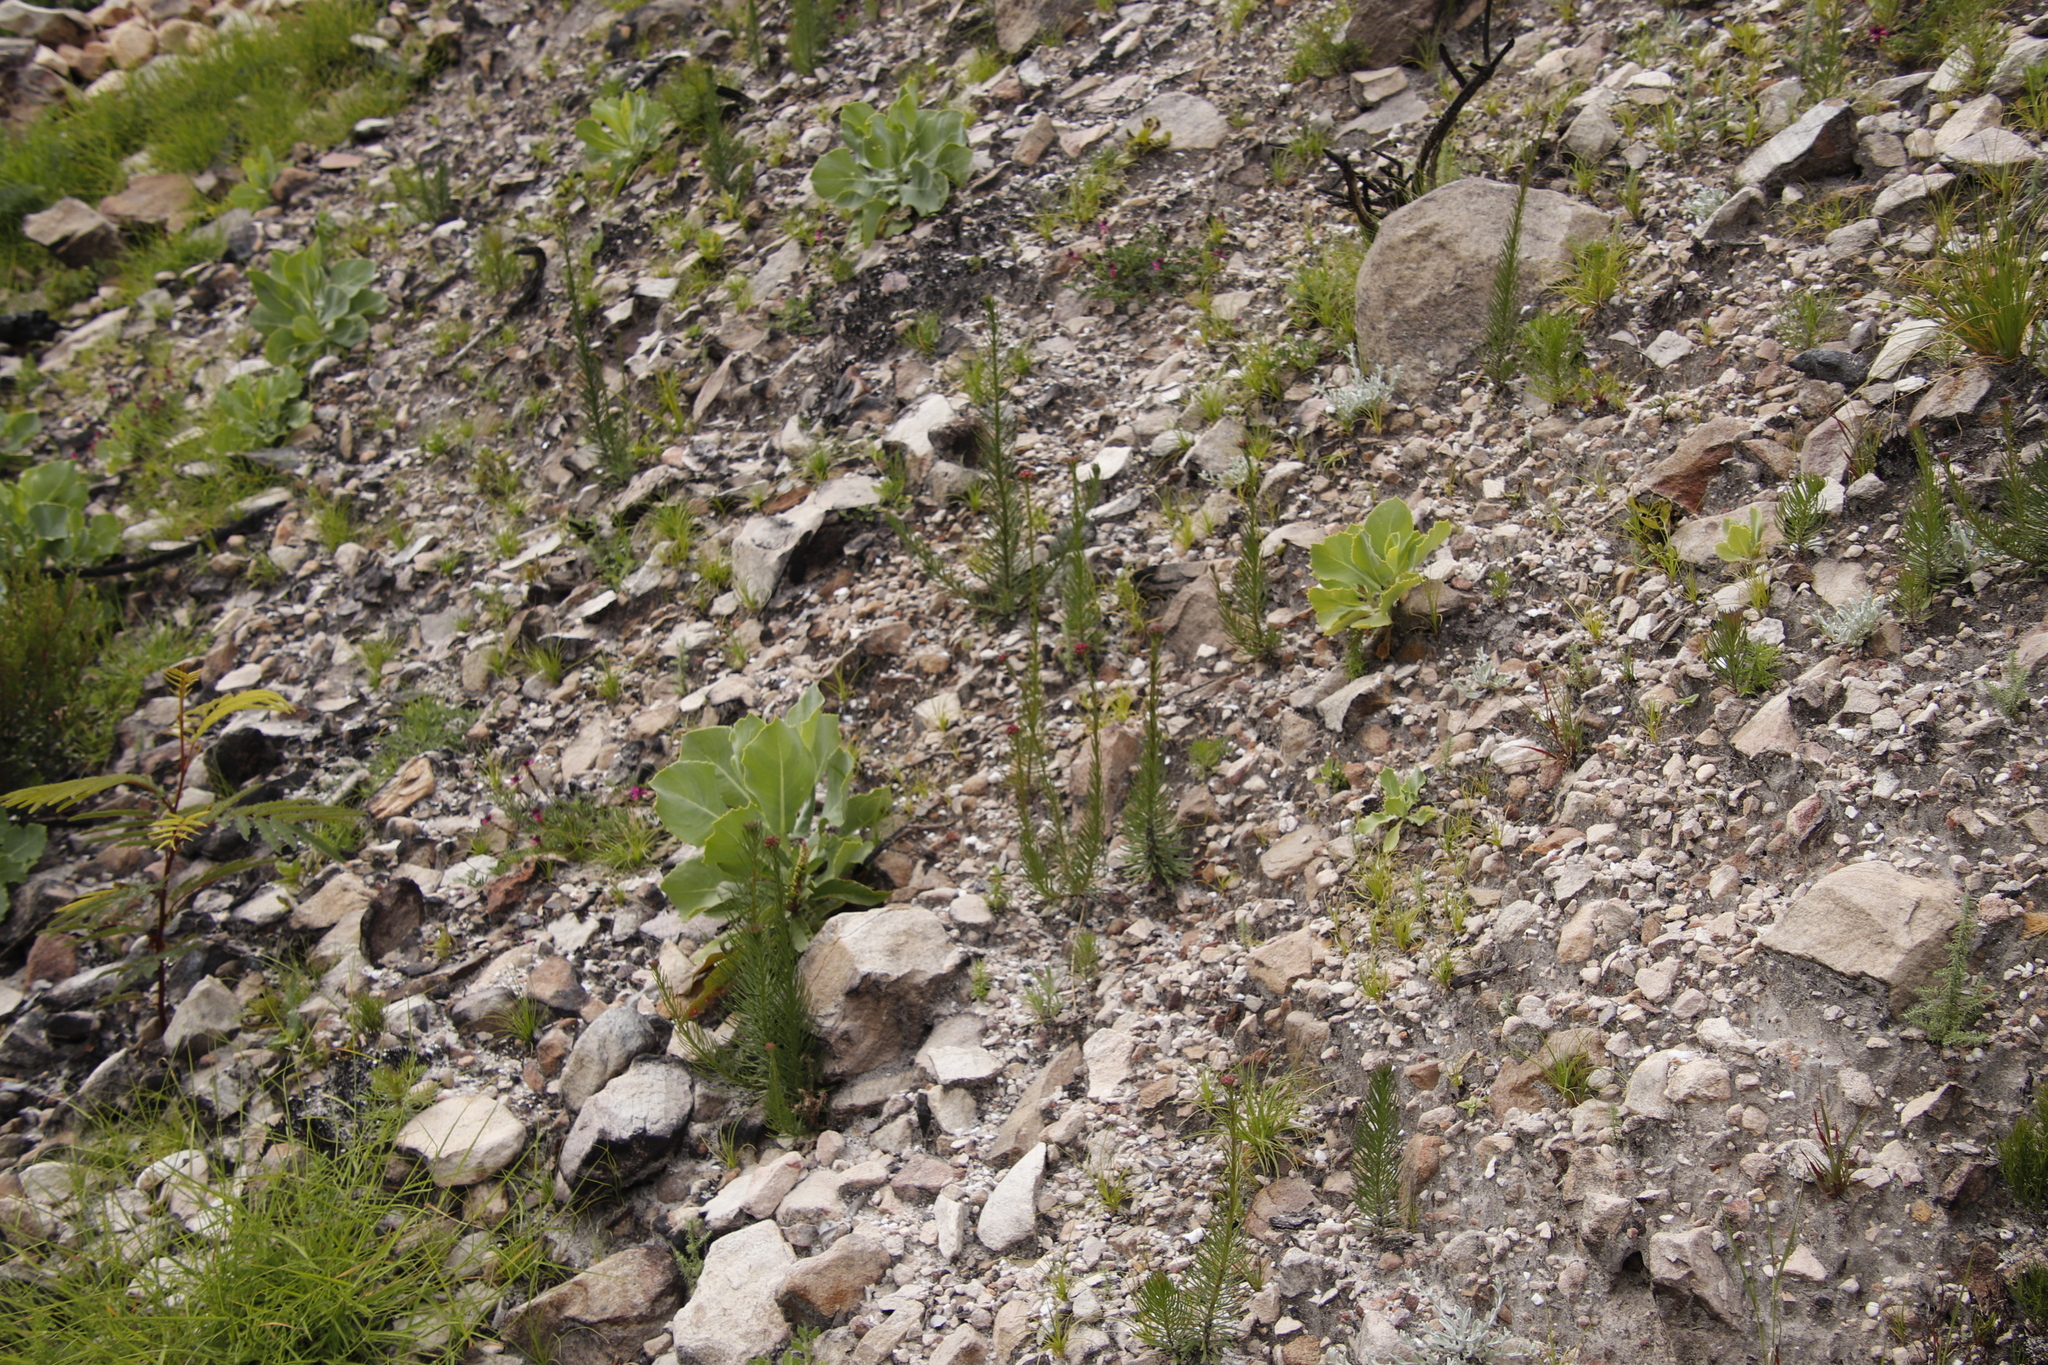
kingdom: Plantae
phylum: Tracheophyta
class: Magnoliopsida
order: Lamiales
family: Scrophulariaceae
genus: Pseudoselago
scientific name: Pseudoselago spuria
